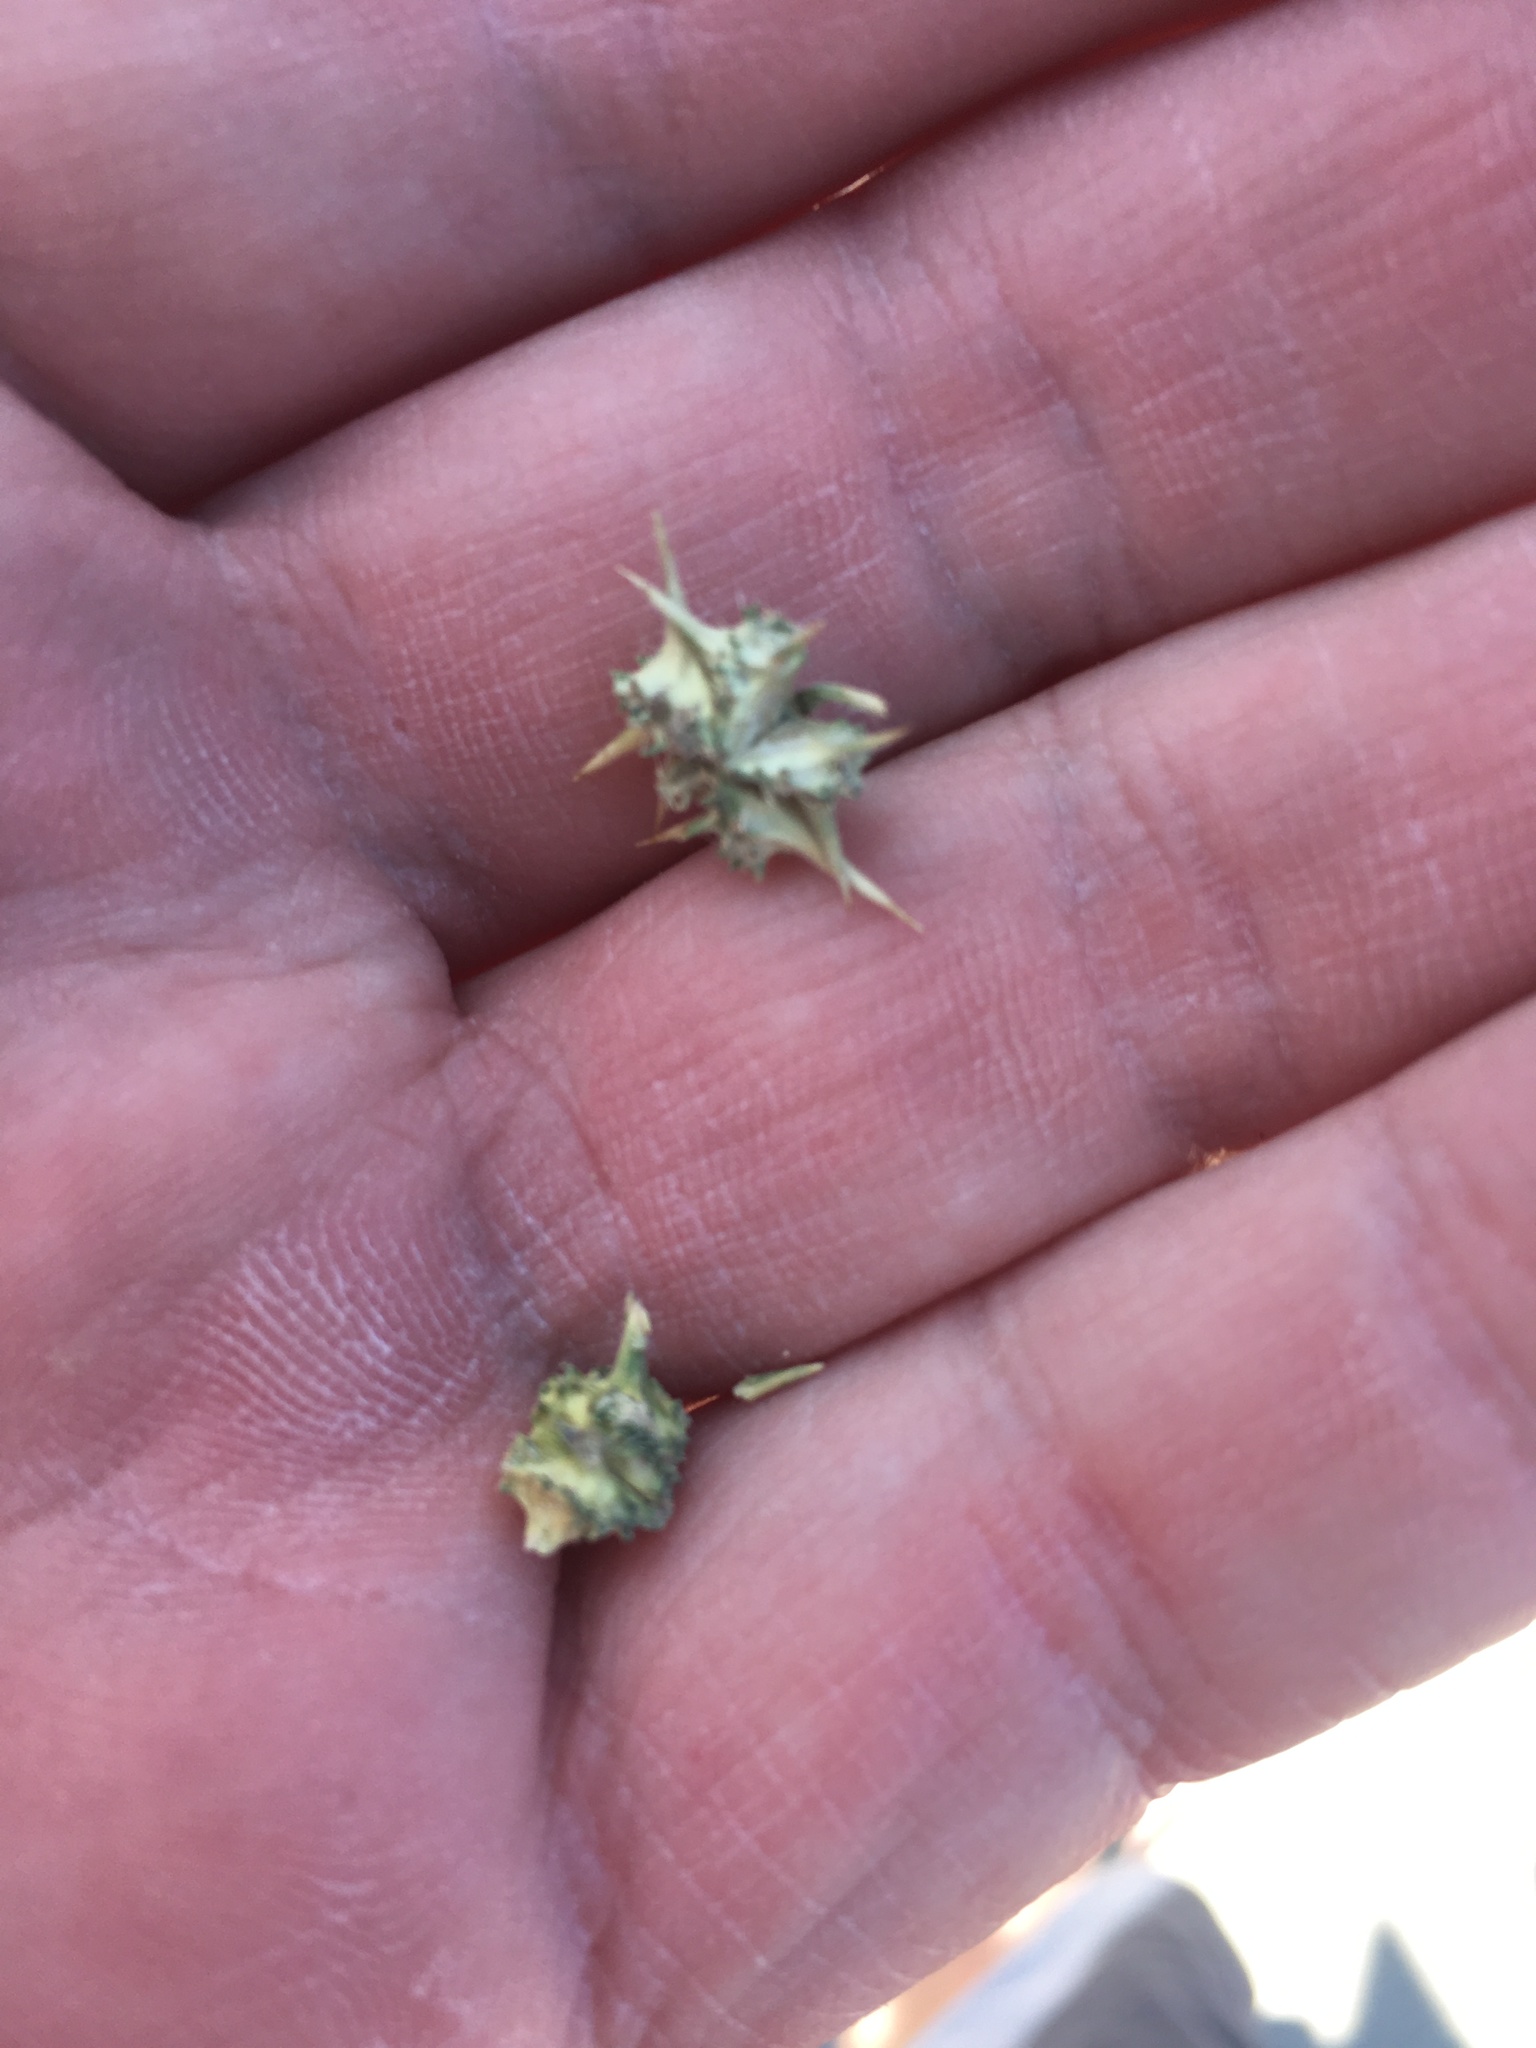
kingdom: Plantae
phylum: Tracheophyta
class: Magnoliopsida
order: Zygophyllales
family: Zygophyllaceae
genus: Tribulus
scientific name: Tribulus terrestris
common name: Puncturevine
